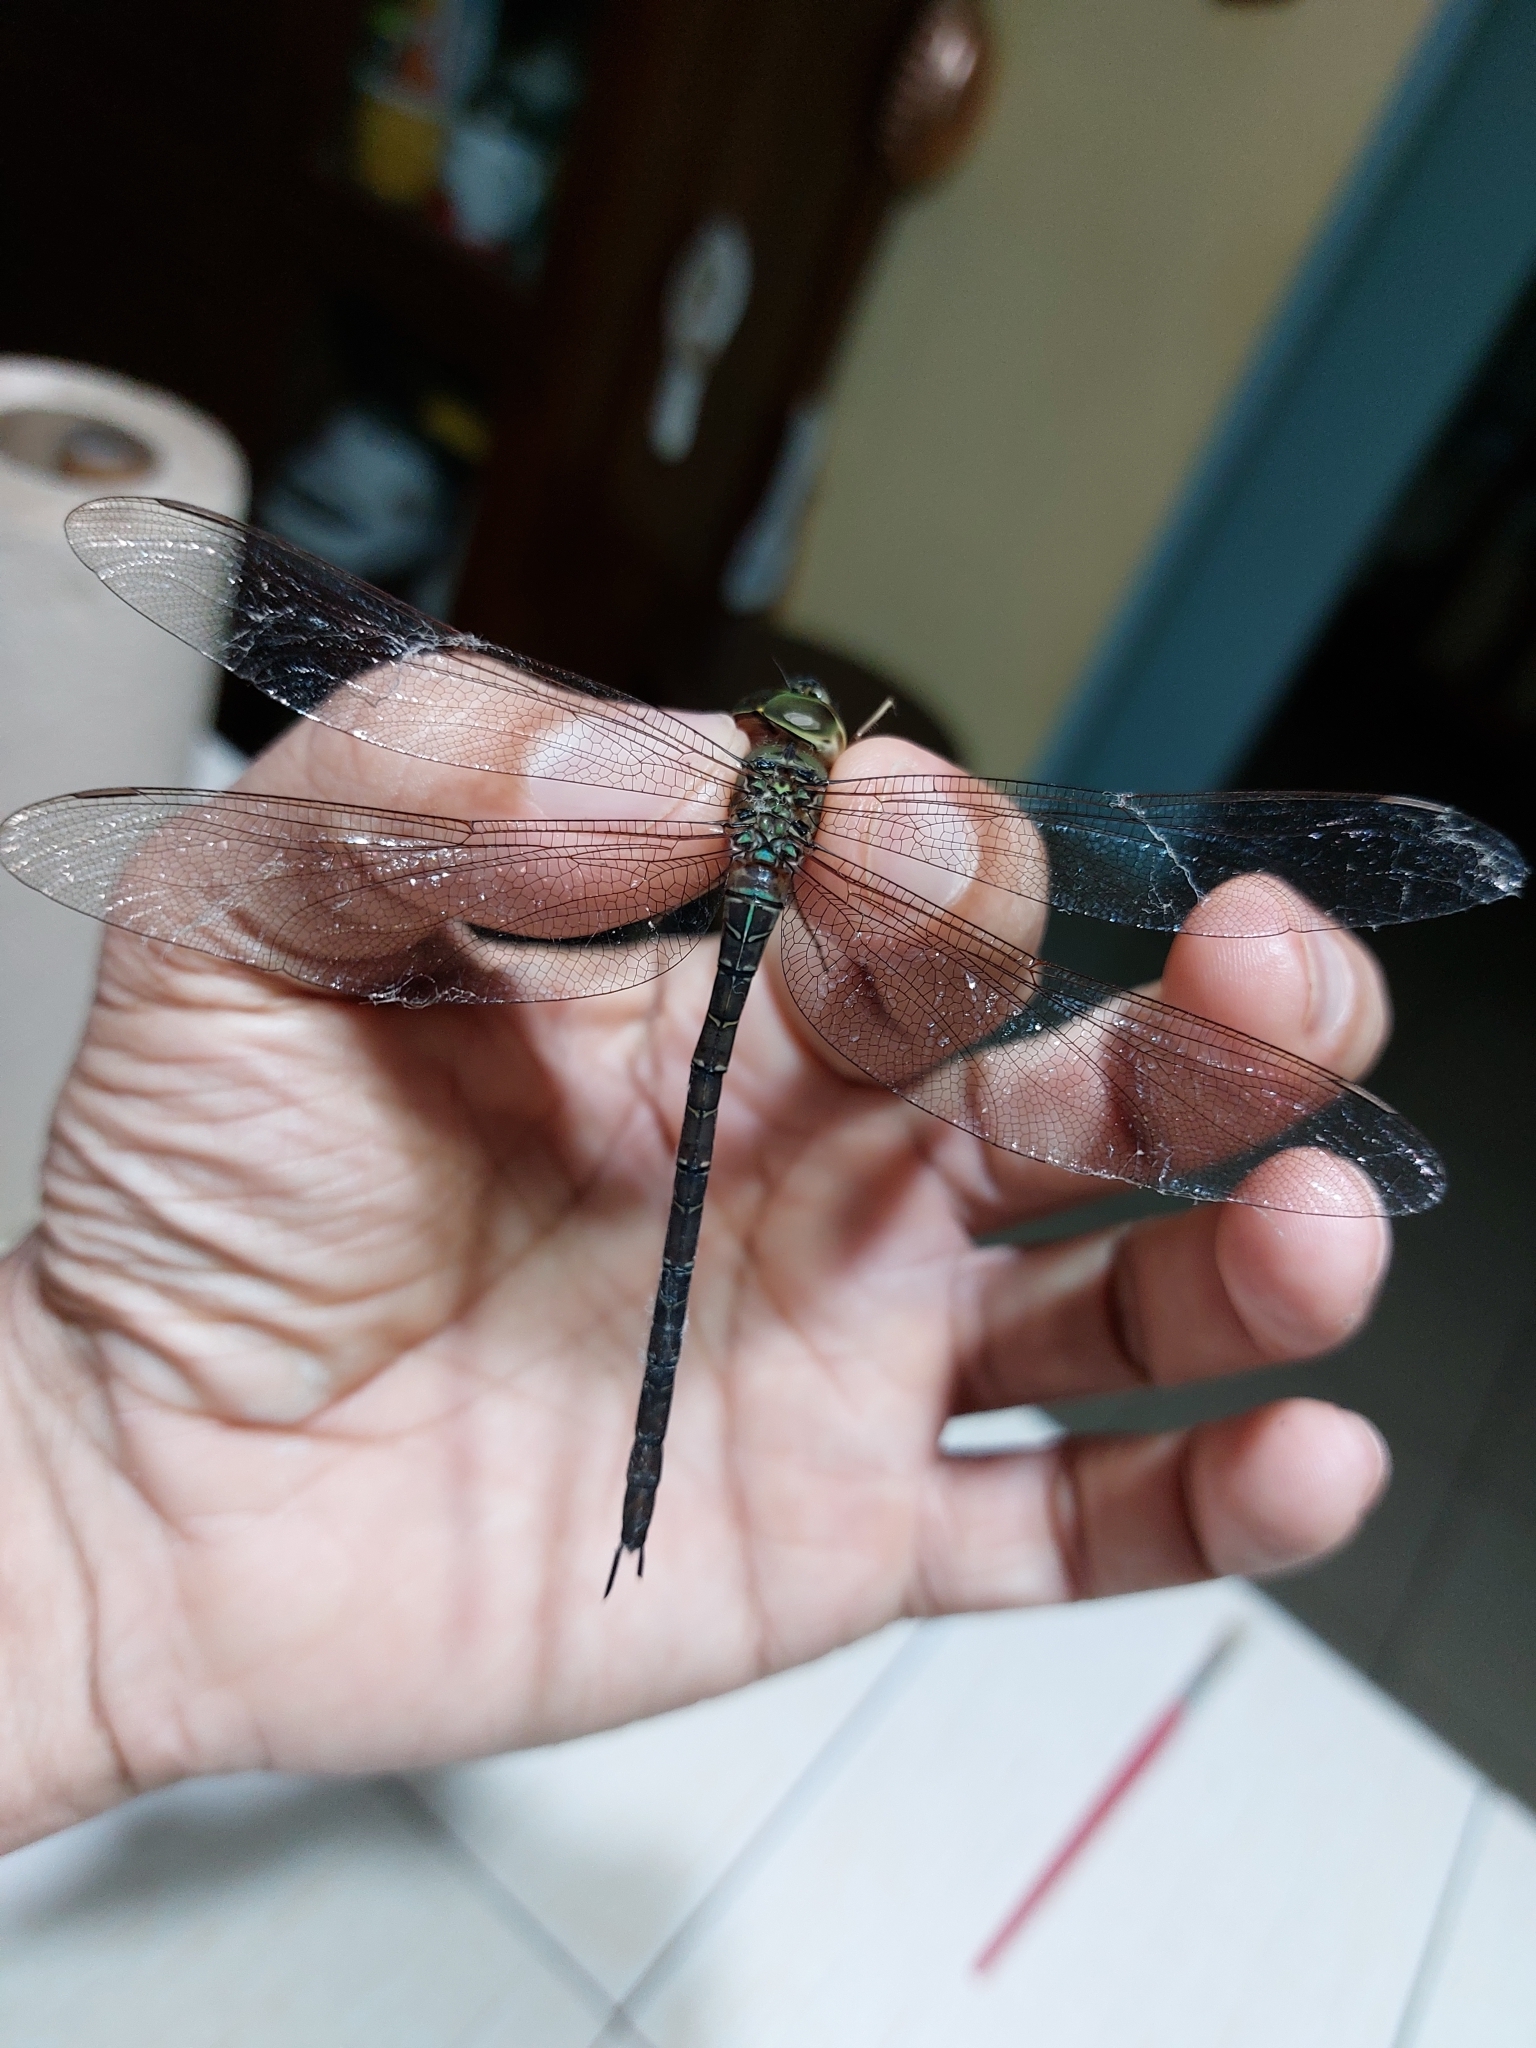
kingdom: Animalia
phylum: Arthropoda
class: Insecta
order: Odonata
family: Aeshnidae
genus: Gynacantha
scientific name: Gynacantha nervosa
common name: Twilight darner
